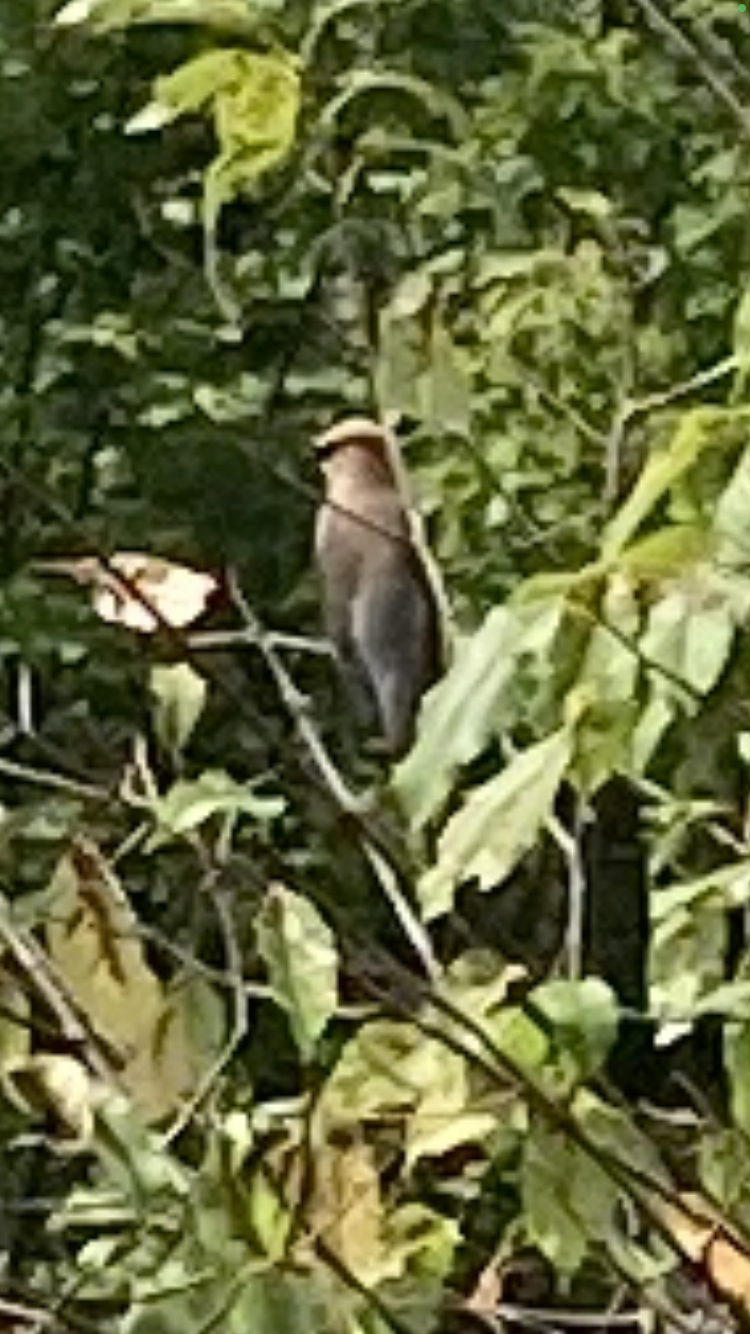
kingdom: Animalia
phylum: Chordata
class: Aves
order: Passeriformes
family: Bombycillidae
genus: Bombycilla
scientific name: Bombycilla cedrorum
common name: Cedar waxwing
